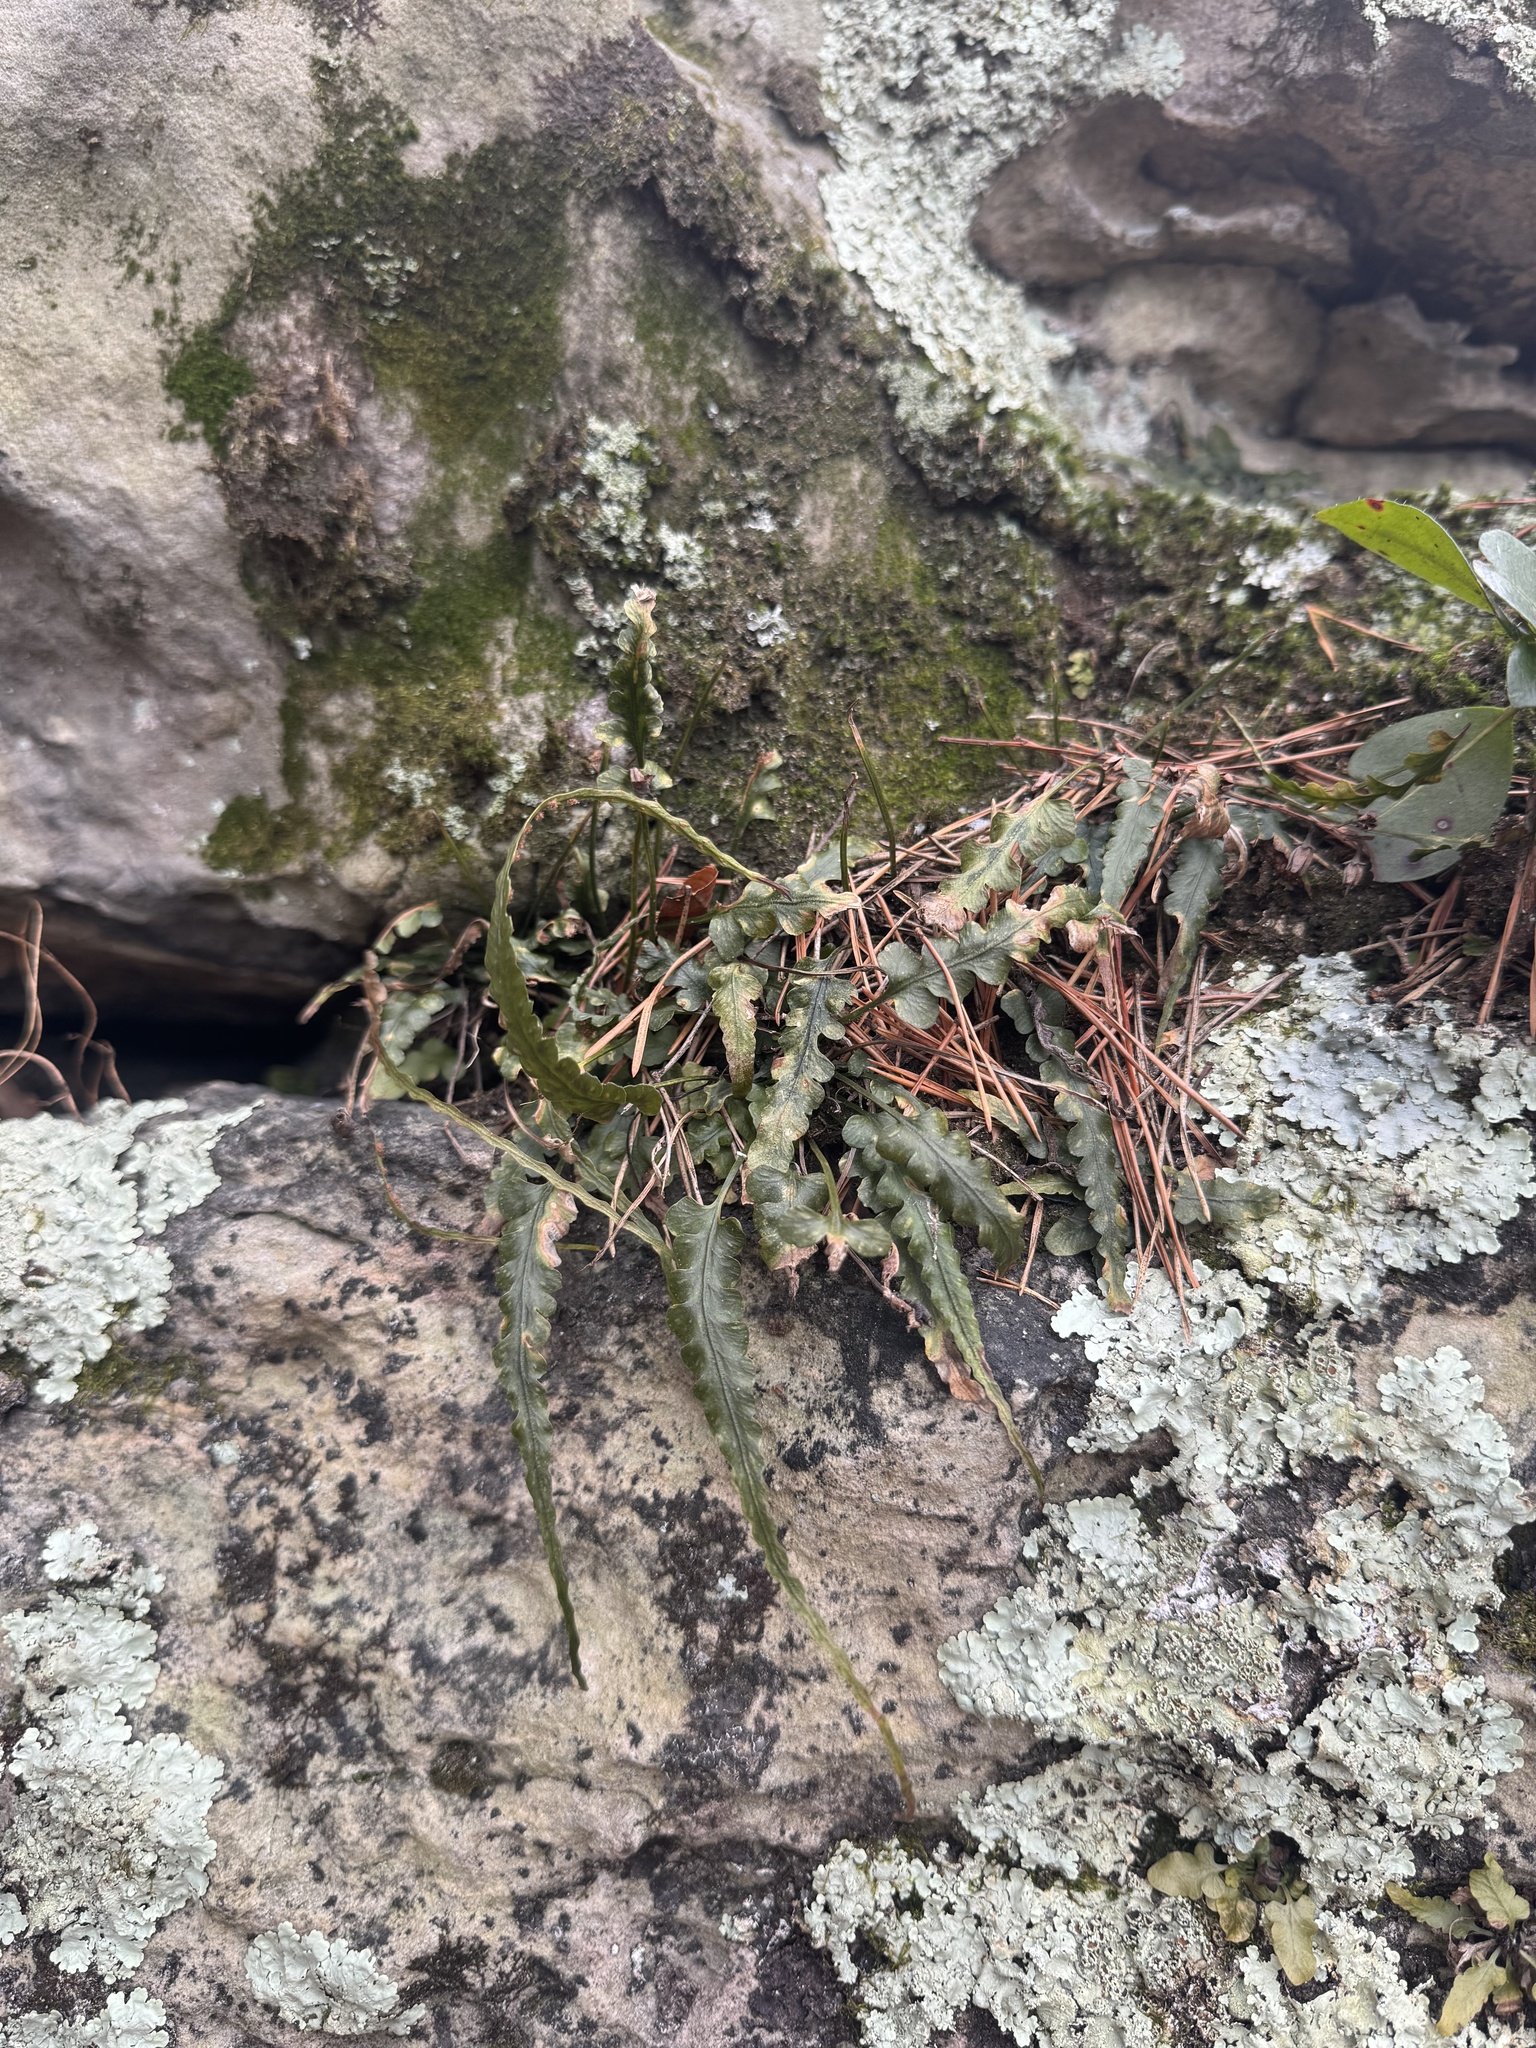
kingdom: Plantae
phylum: Tracheophyta
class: Polypodiopsida
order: Polypodiales
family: Aspleniaceae
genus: Asplenium
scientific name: Asplenium pinnatifidum
